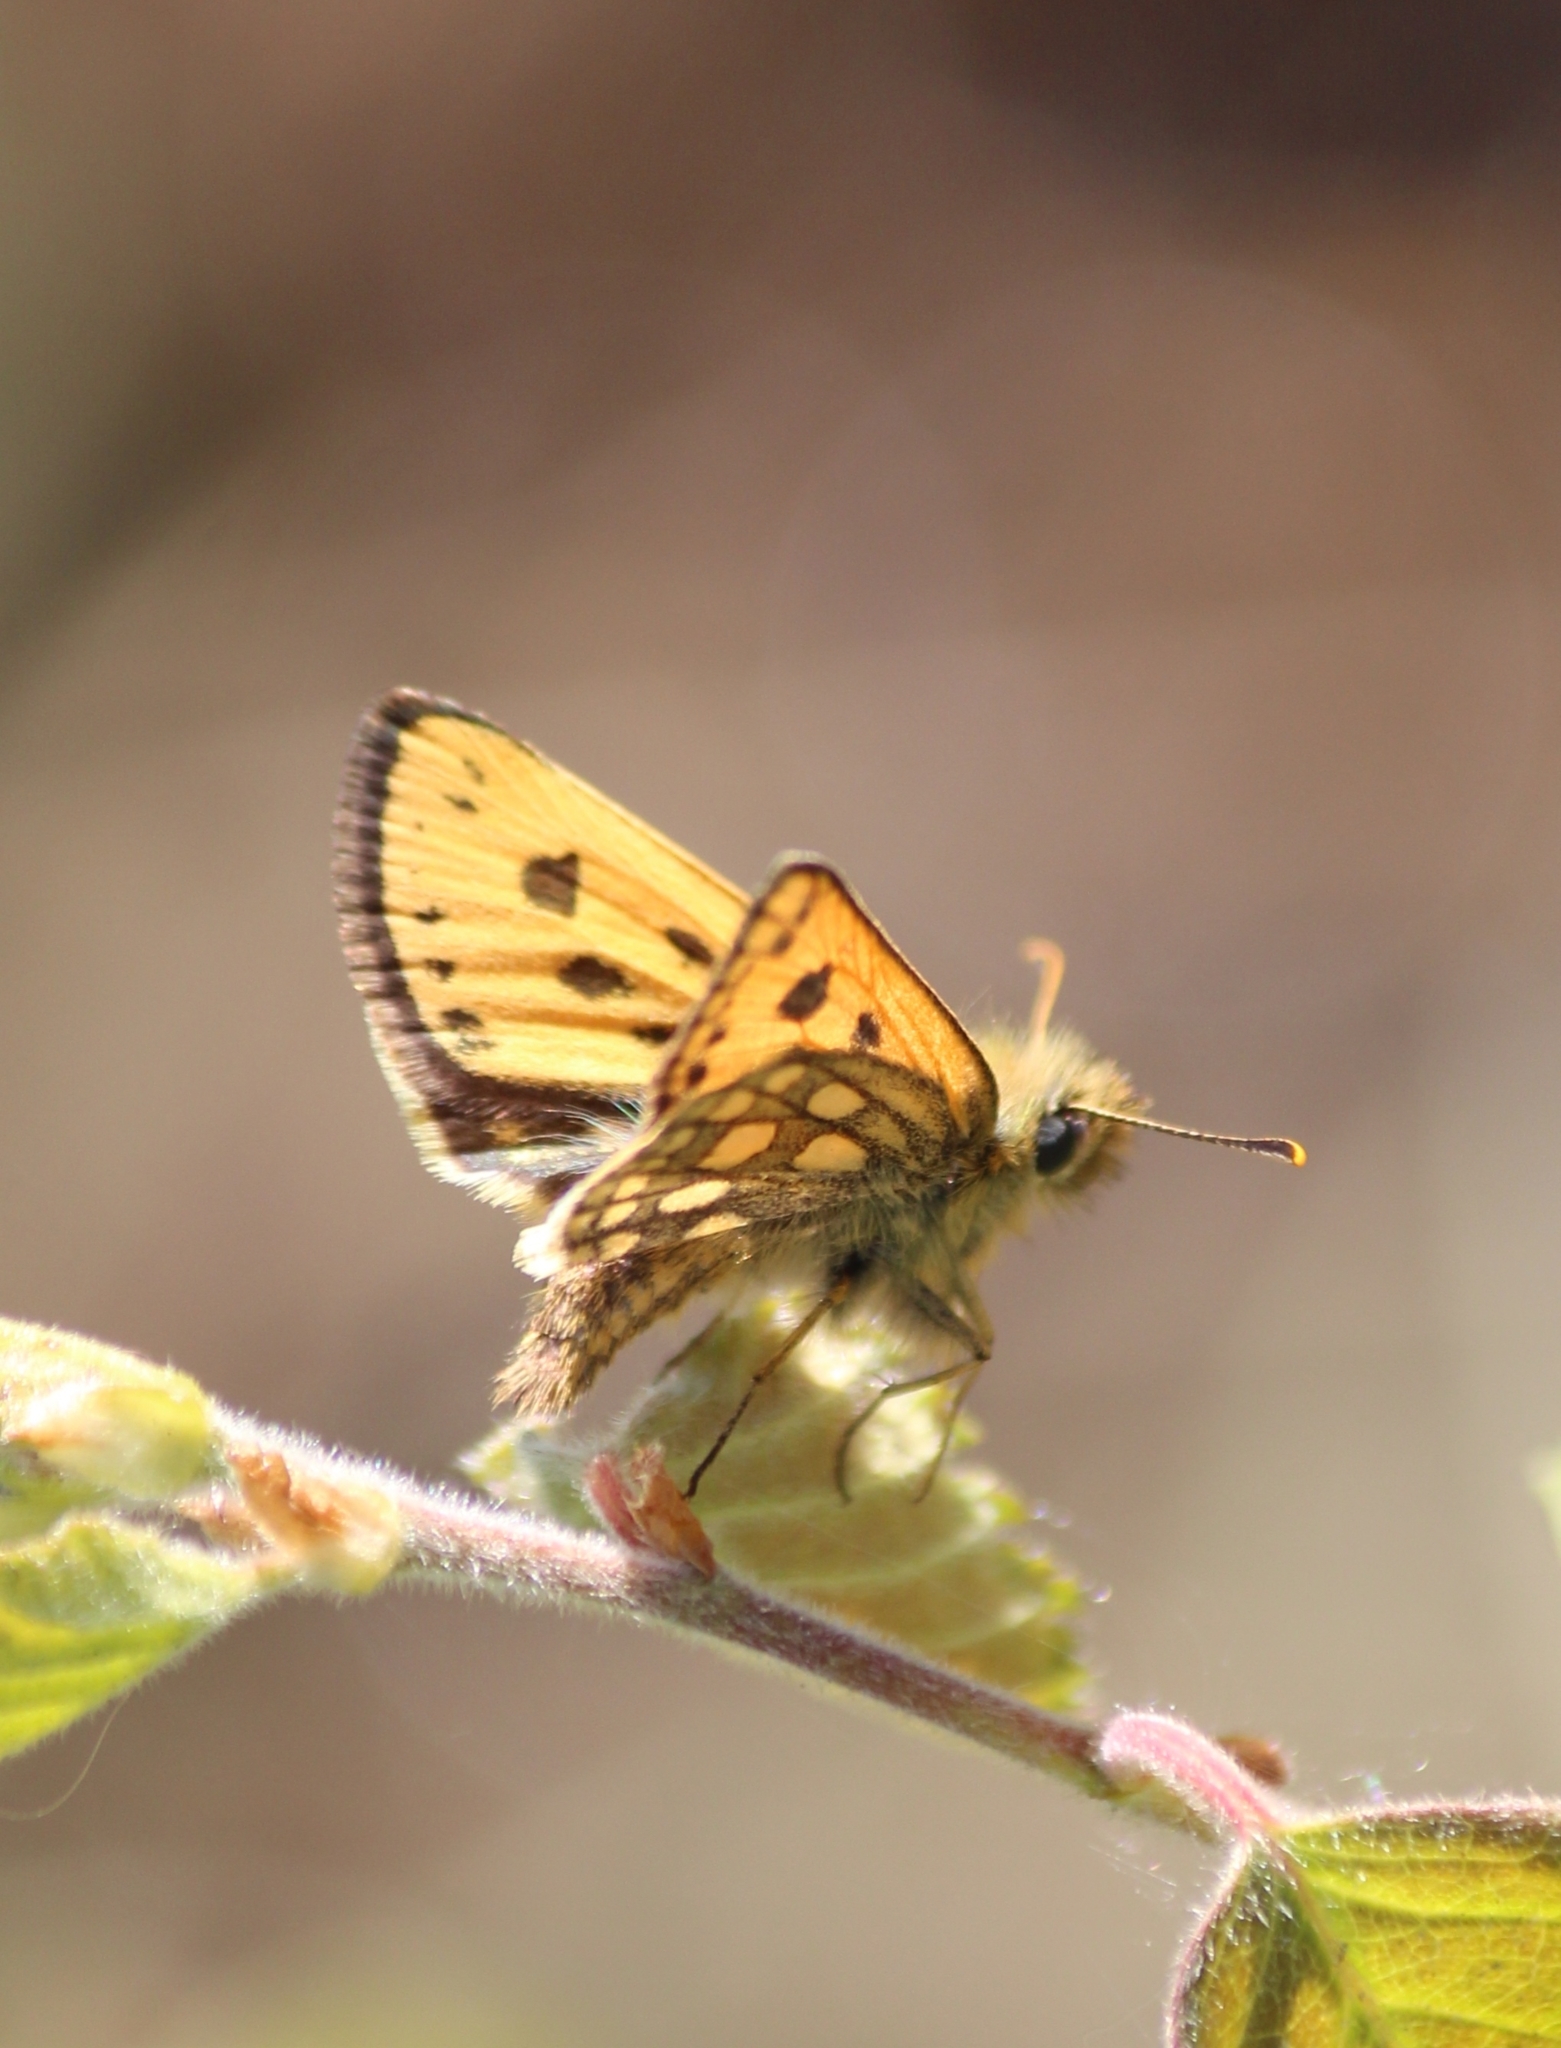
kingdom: Animalia
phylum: Arthropoda
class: Insecta
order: Lepidoptera
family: Hesperiidae
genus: Carterocephalus
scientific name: Carterocephalus silvicola
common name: Northern chequered skipper
